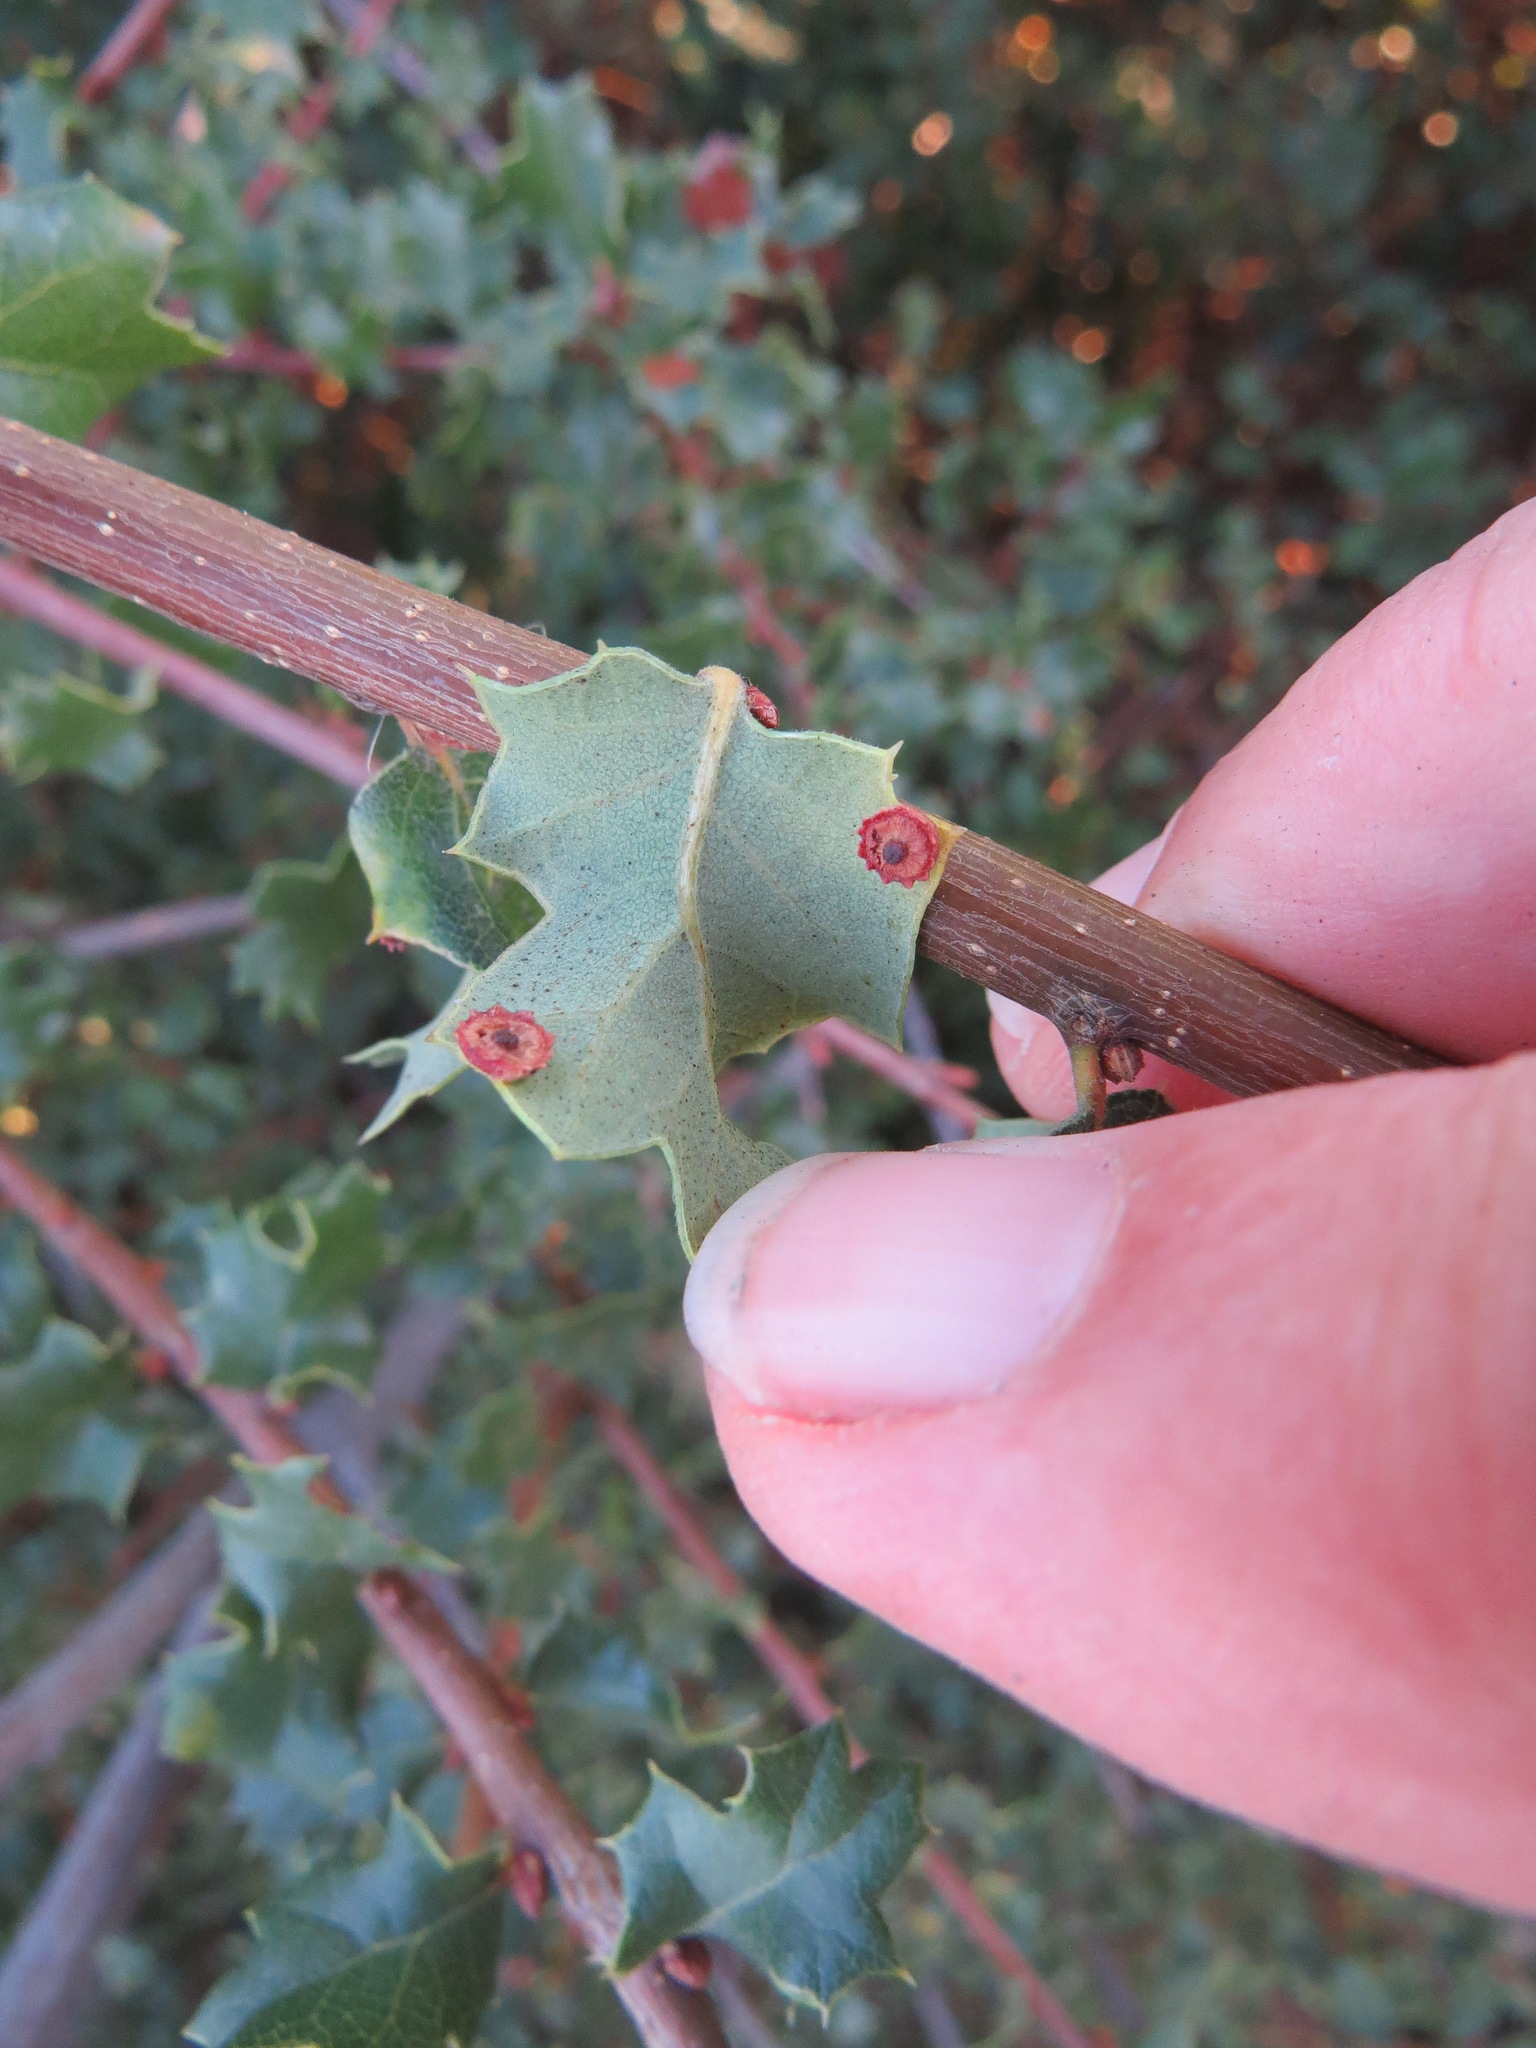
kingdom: Animalia
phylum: Arthropoda
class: Insecta
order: Hymenoptera
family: Cynipidae
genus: Andricus
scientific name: Andricus
